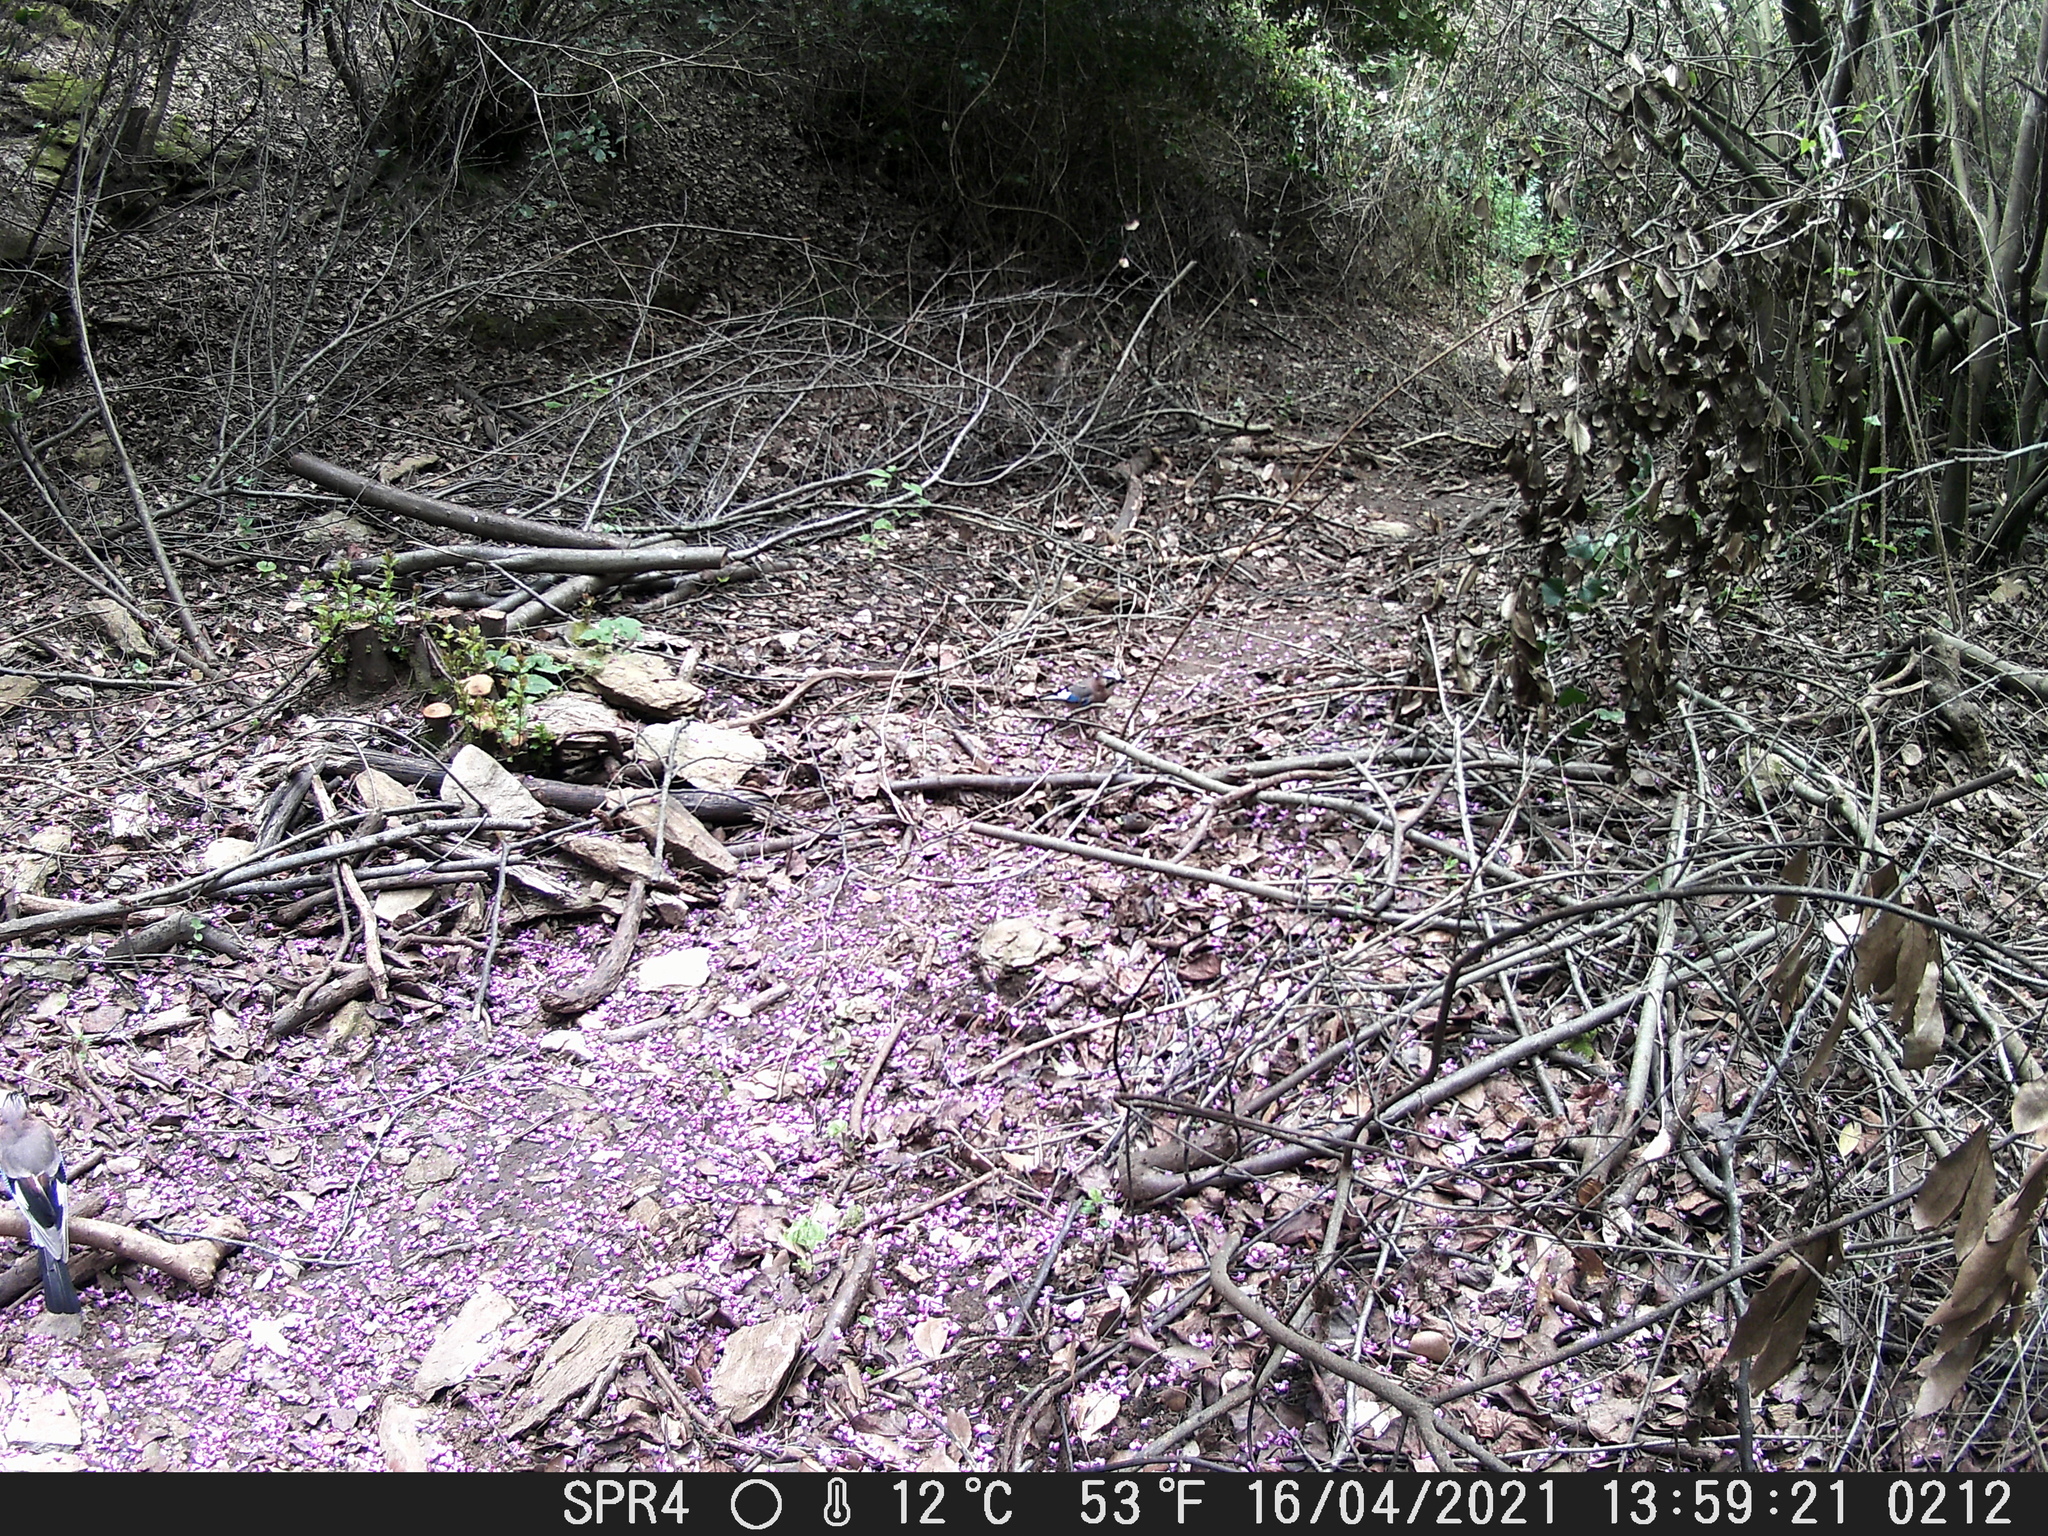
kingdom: Animalia
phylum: Chordata
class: Aves
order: Passeriformes
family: Corvidae
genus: Garrulus
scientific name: Garrulus glandarius
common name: Eurasian jay
